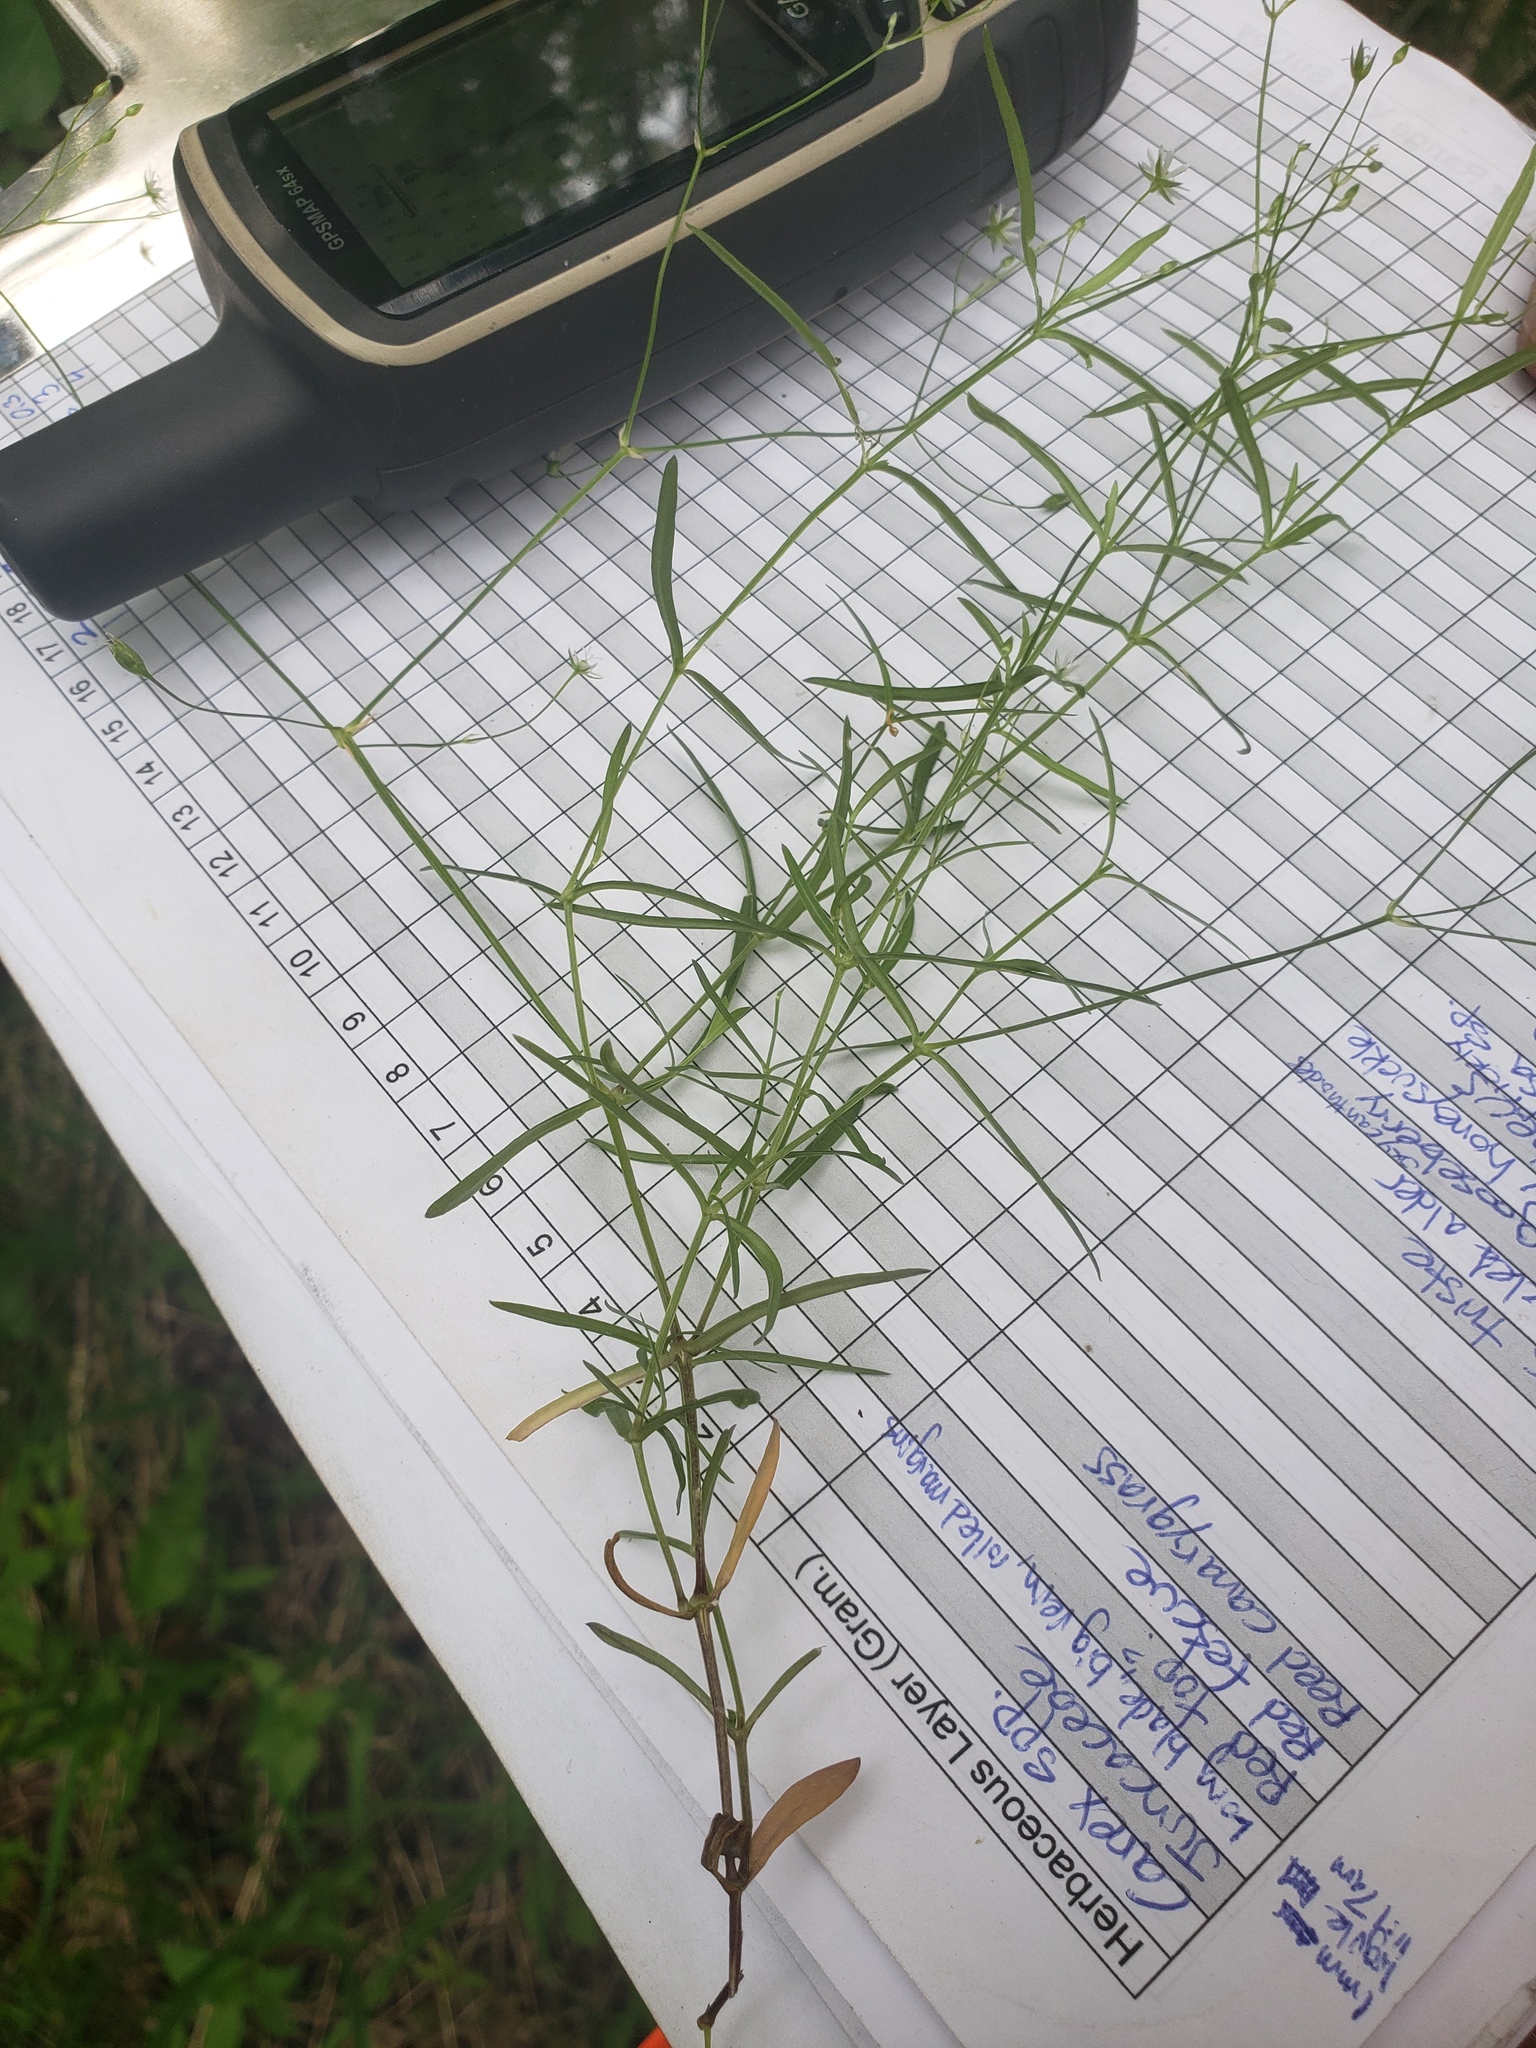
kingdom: Plantae
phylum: Tracheophyta
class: Magnoliopsida
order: Caryophyllales
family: Caryophyllaceae
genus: Stellaria
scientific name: Stellaria longifolia
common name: Long-leaved chickweed
